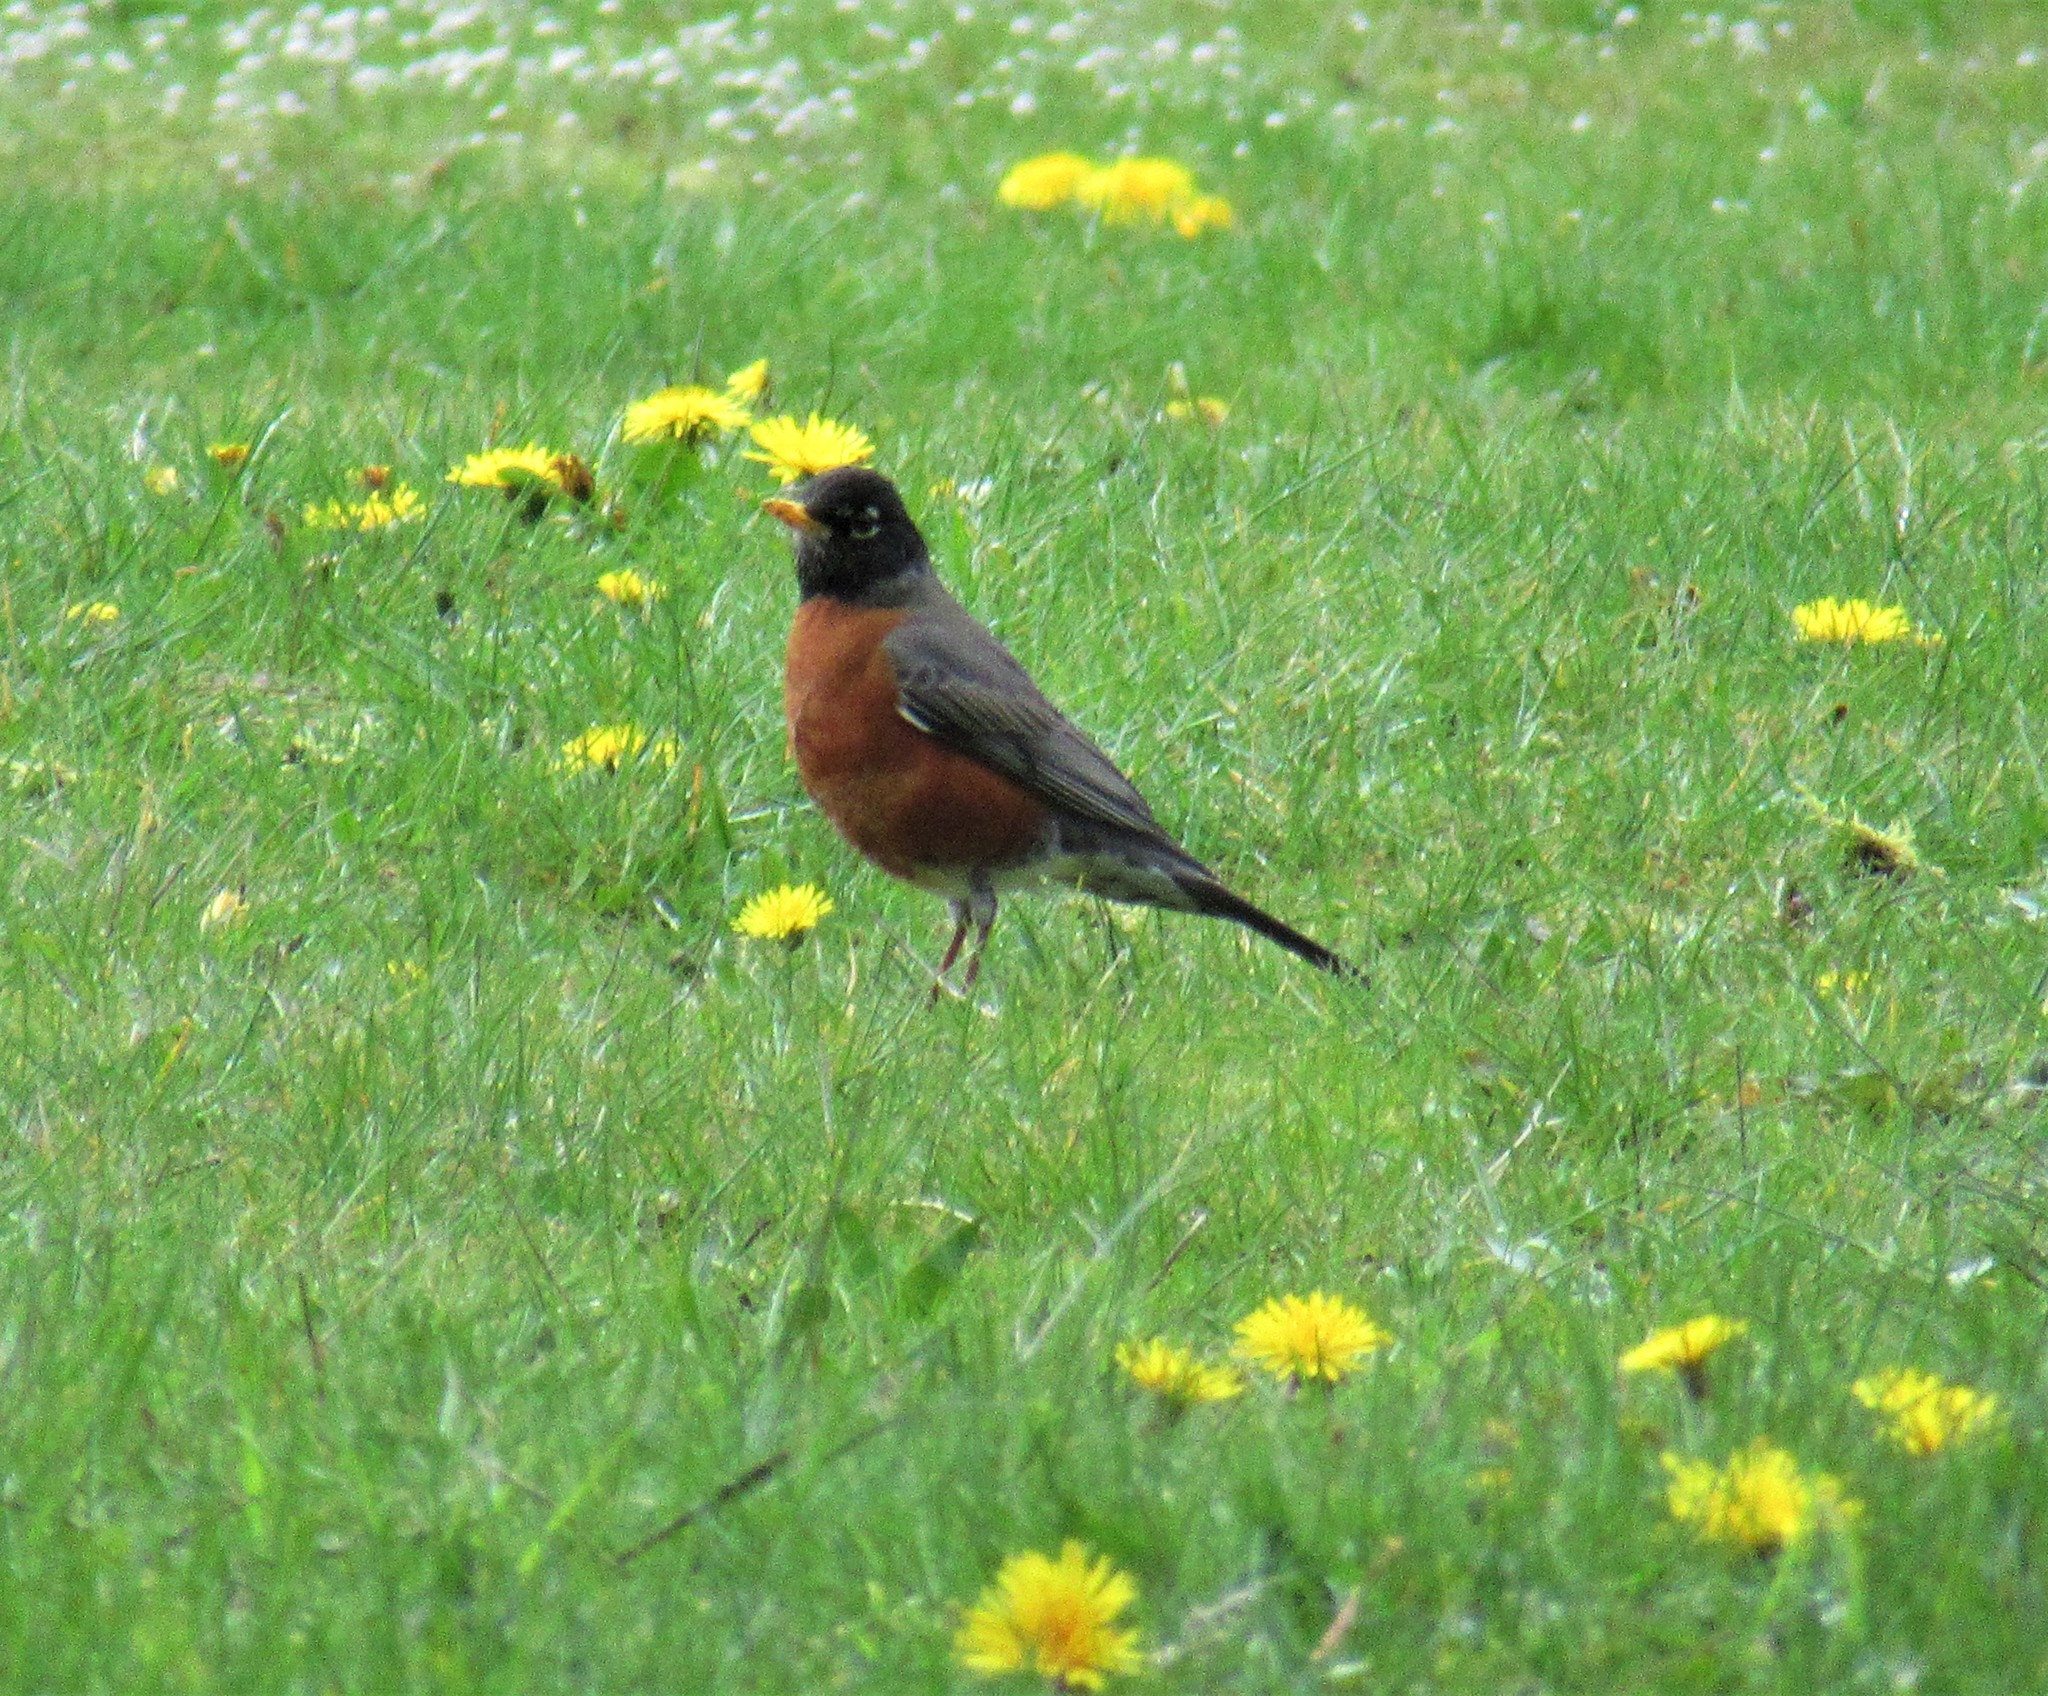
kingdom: Animalia
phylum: Chordata
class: Aves
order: Passeriformes
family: Turdidae
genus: Turdus
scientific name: Turdus migratorius
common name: American robin
